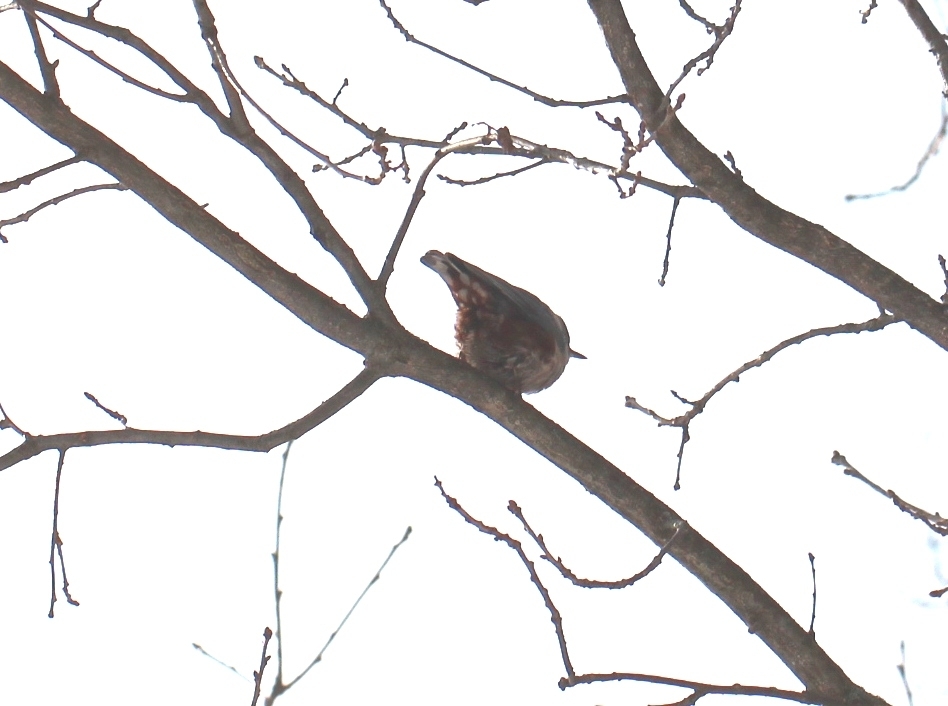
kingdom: Animalia
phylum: Chordata
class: Aves
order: Passeriformes
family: Sittidae
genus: Sitta
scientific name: Sitta europaea
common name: Eurasian nuthatch
